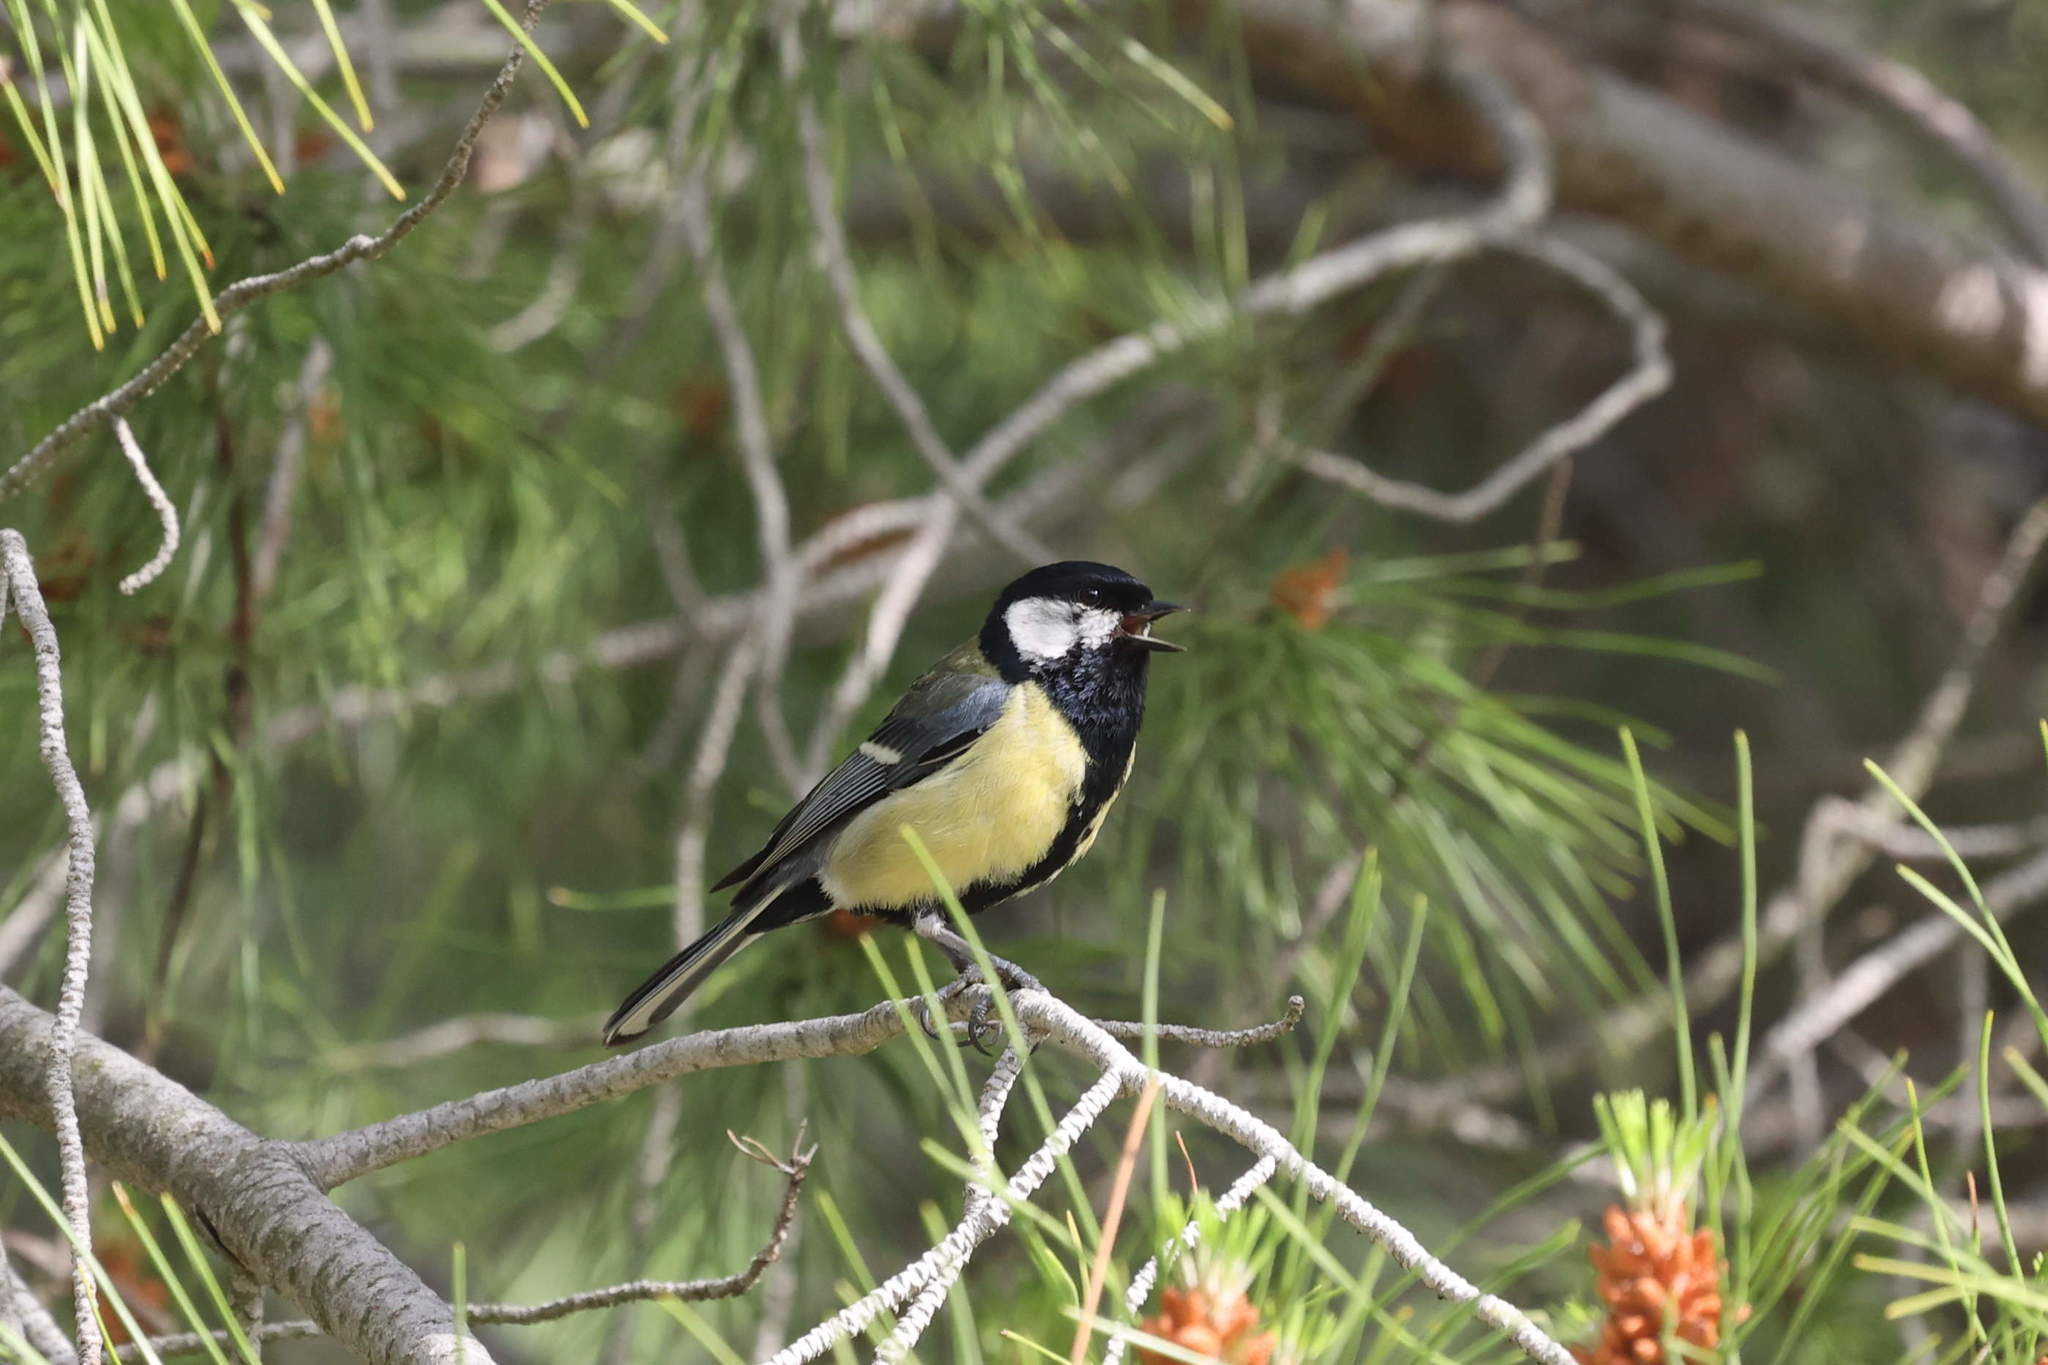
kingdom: Animalia
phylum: Chordata
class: Aves
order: Passeriformes
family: Paridae
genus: Parus
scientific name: Parus major
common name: Great tit
